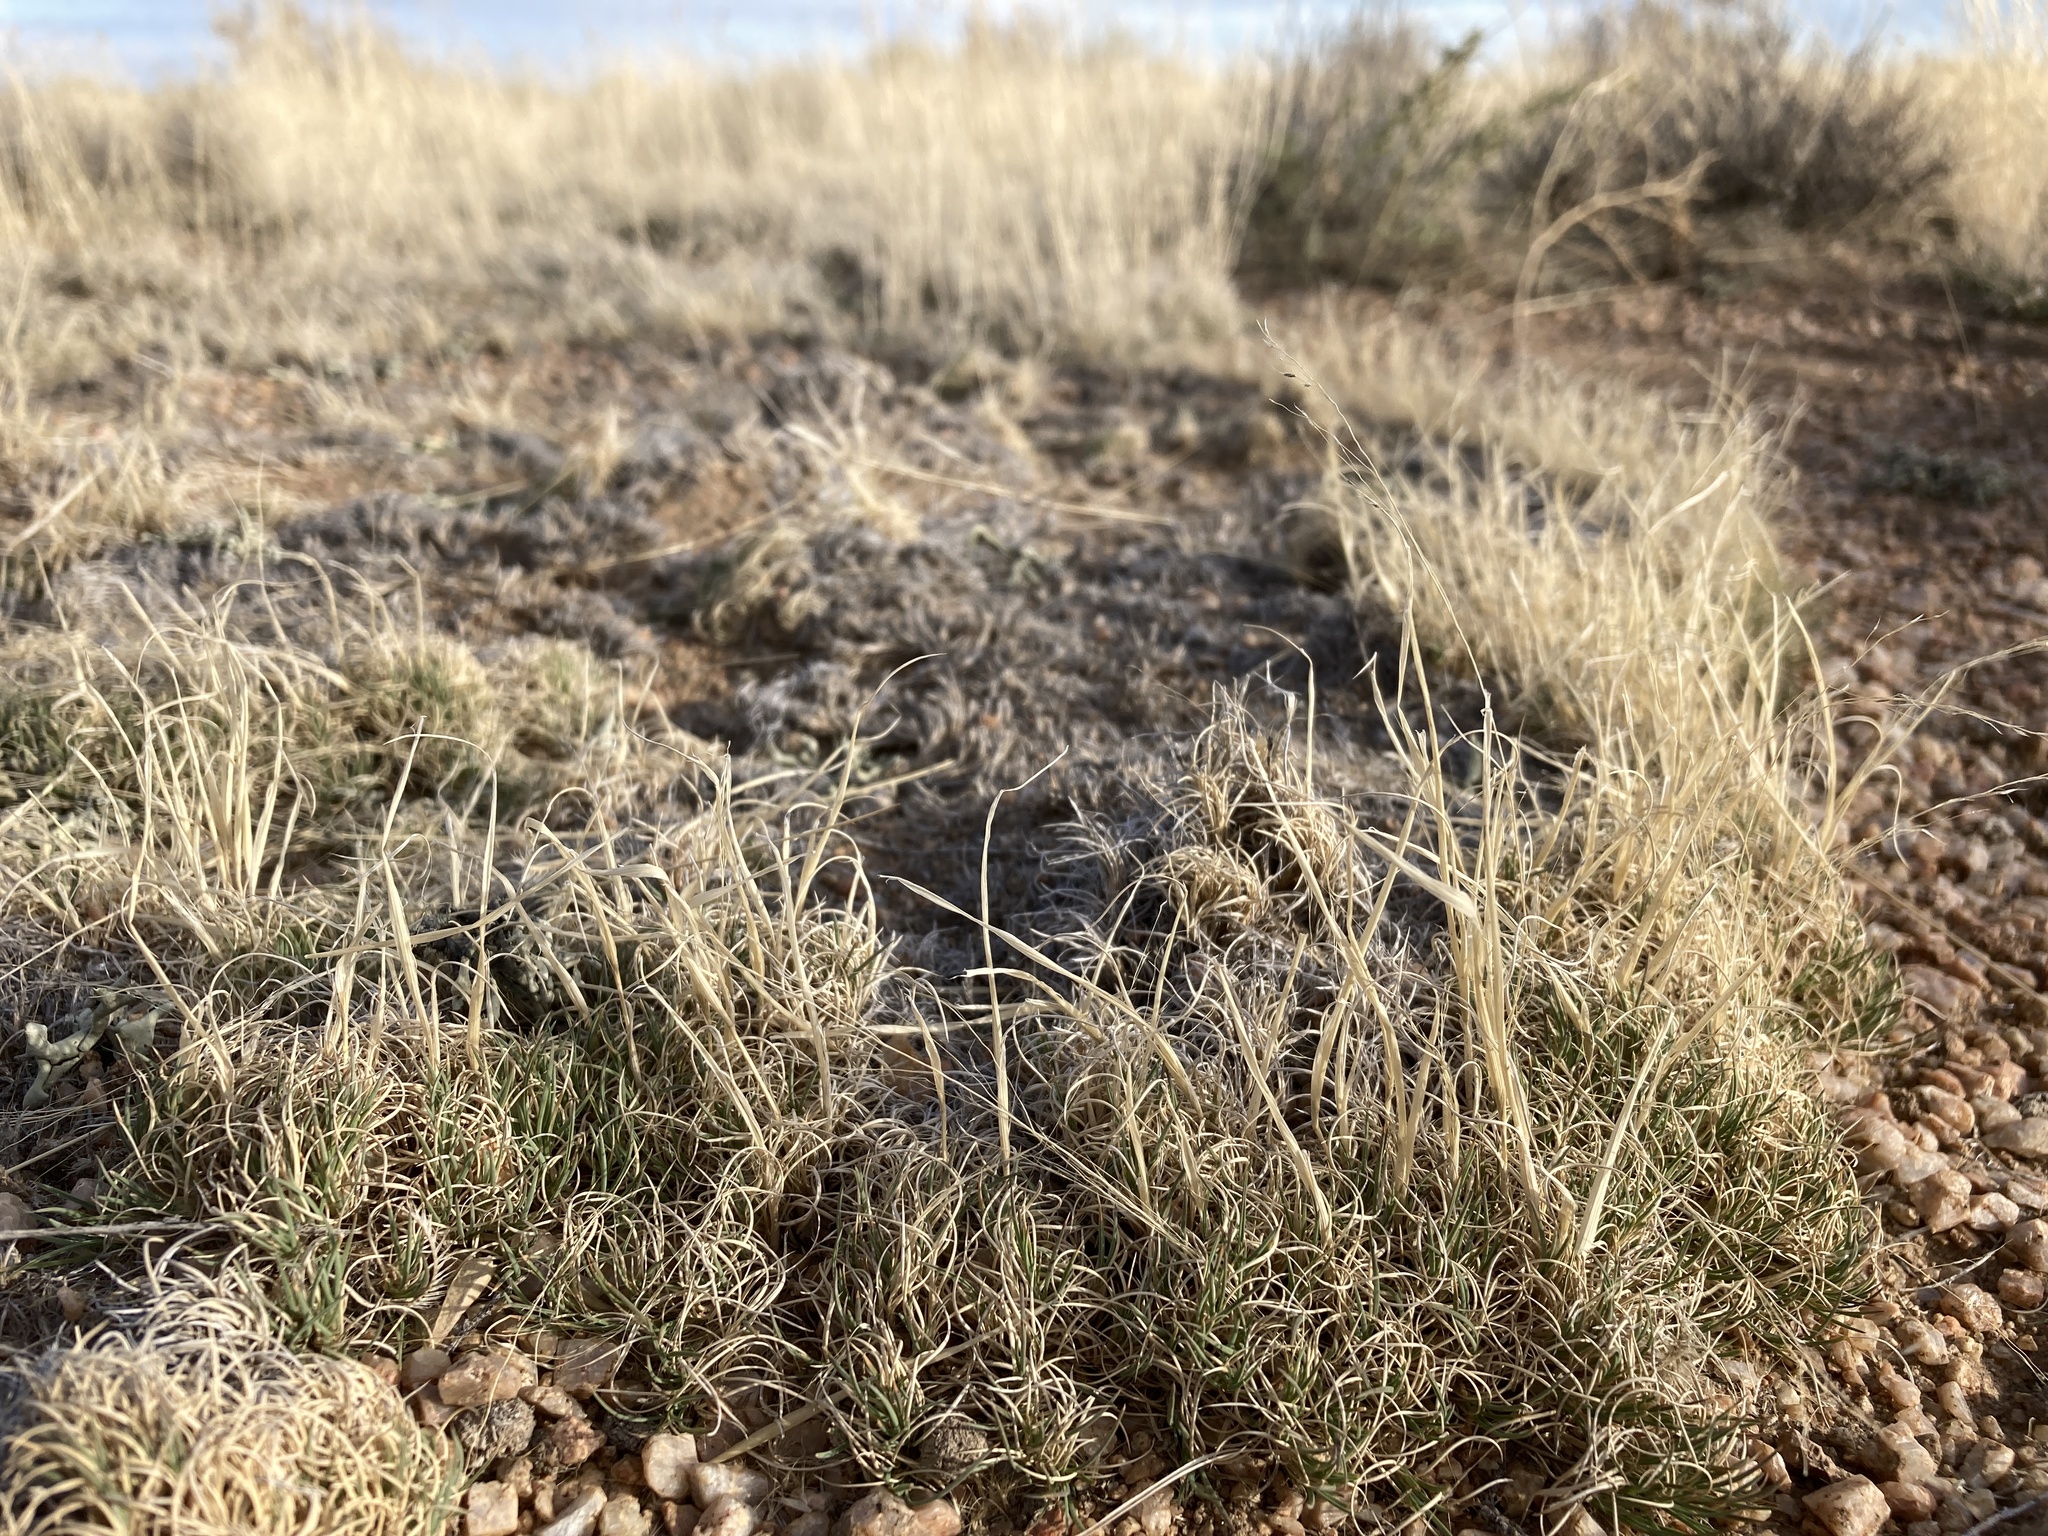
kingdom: Plantae
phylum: Tracheophyta
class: Liliopsida
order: Poales
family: Poaceae
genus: Muhlenbergia
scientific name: Muhlenbergia torreyi
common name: Ring grass
